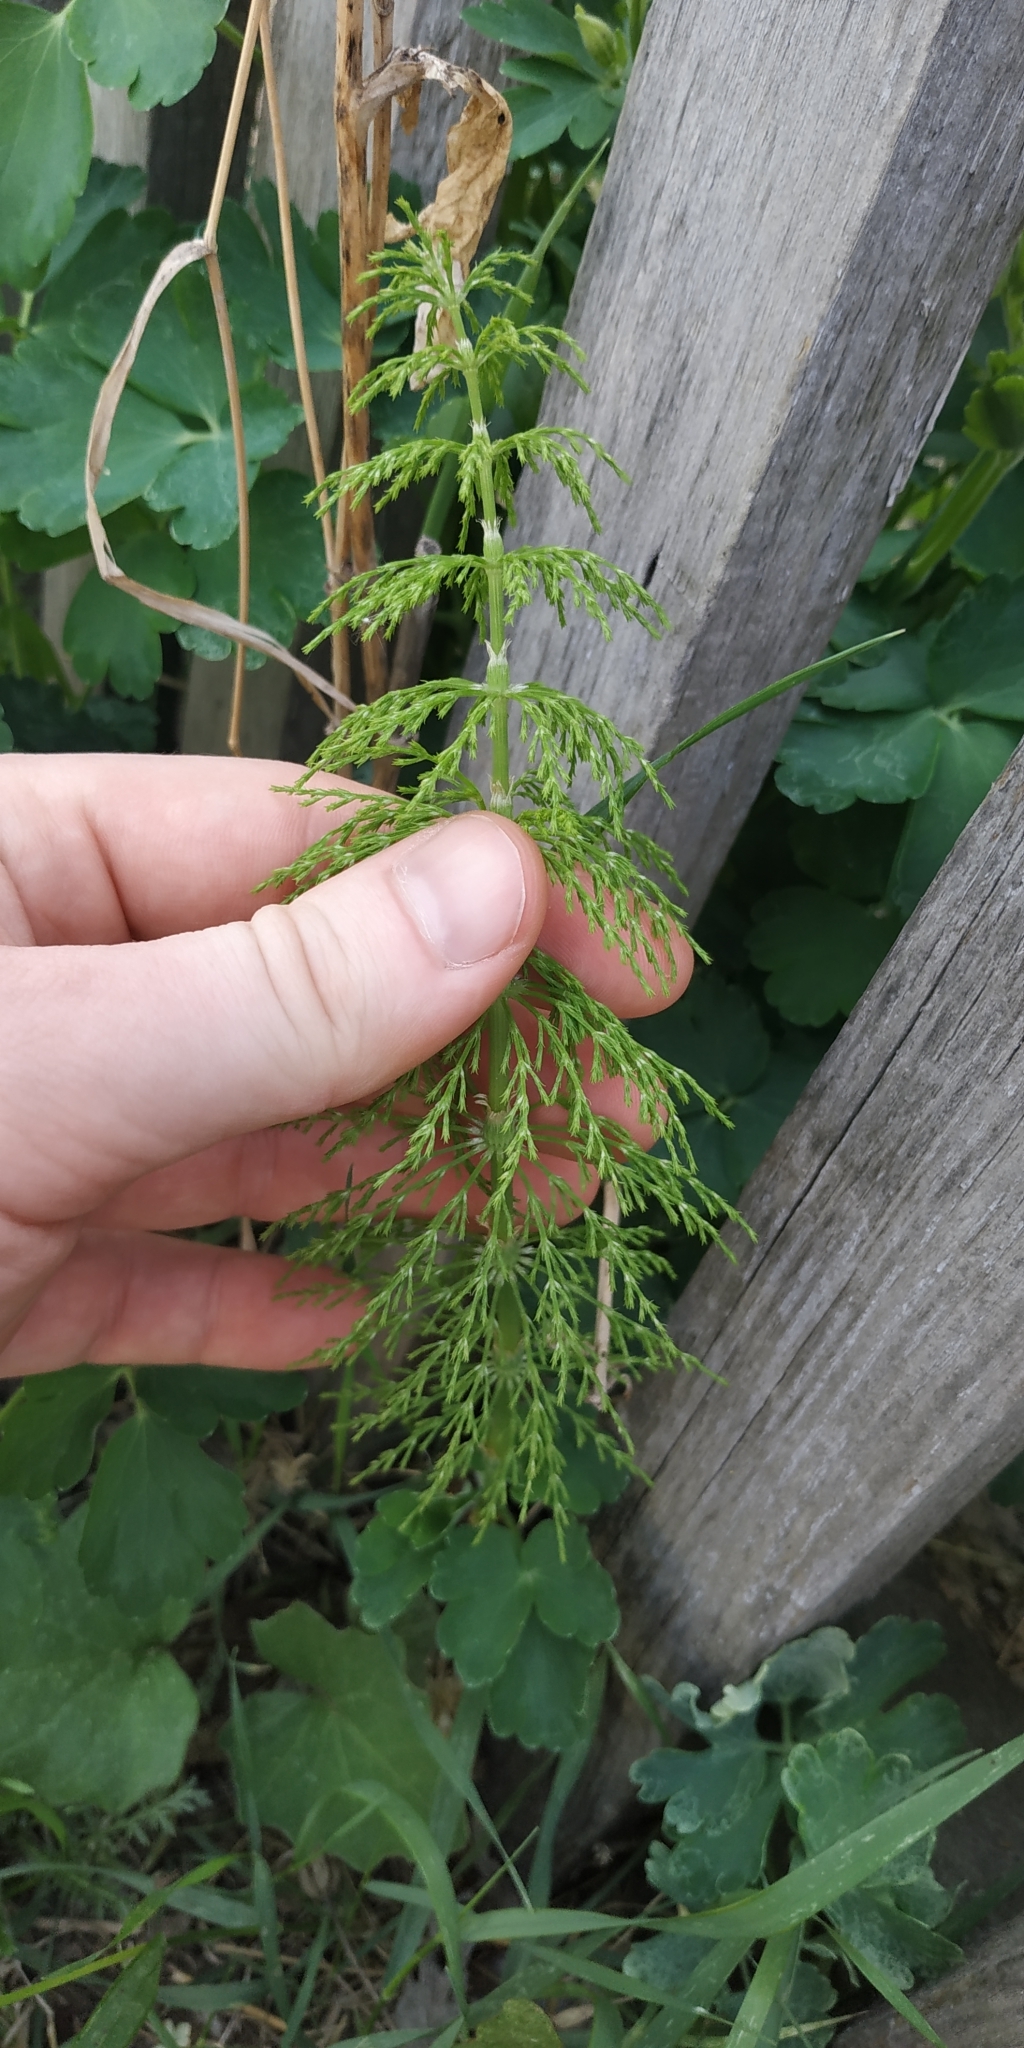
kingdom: Plantae
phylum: Tracheophyta
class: Polypodiopsida
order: Equisetales
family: Equisetaceae
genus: Equisetum
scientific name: Equisetum sylvaticum
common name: Wood horsetail
